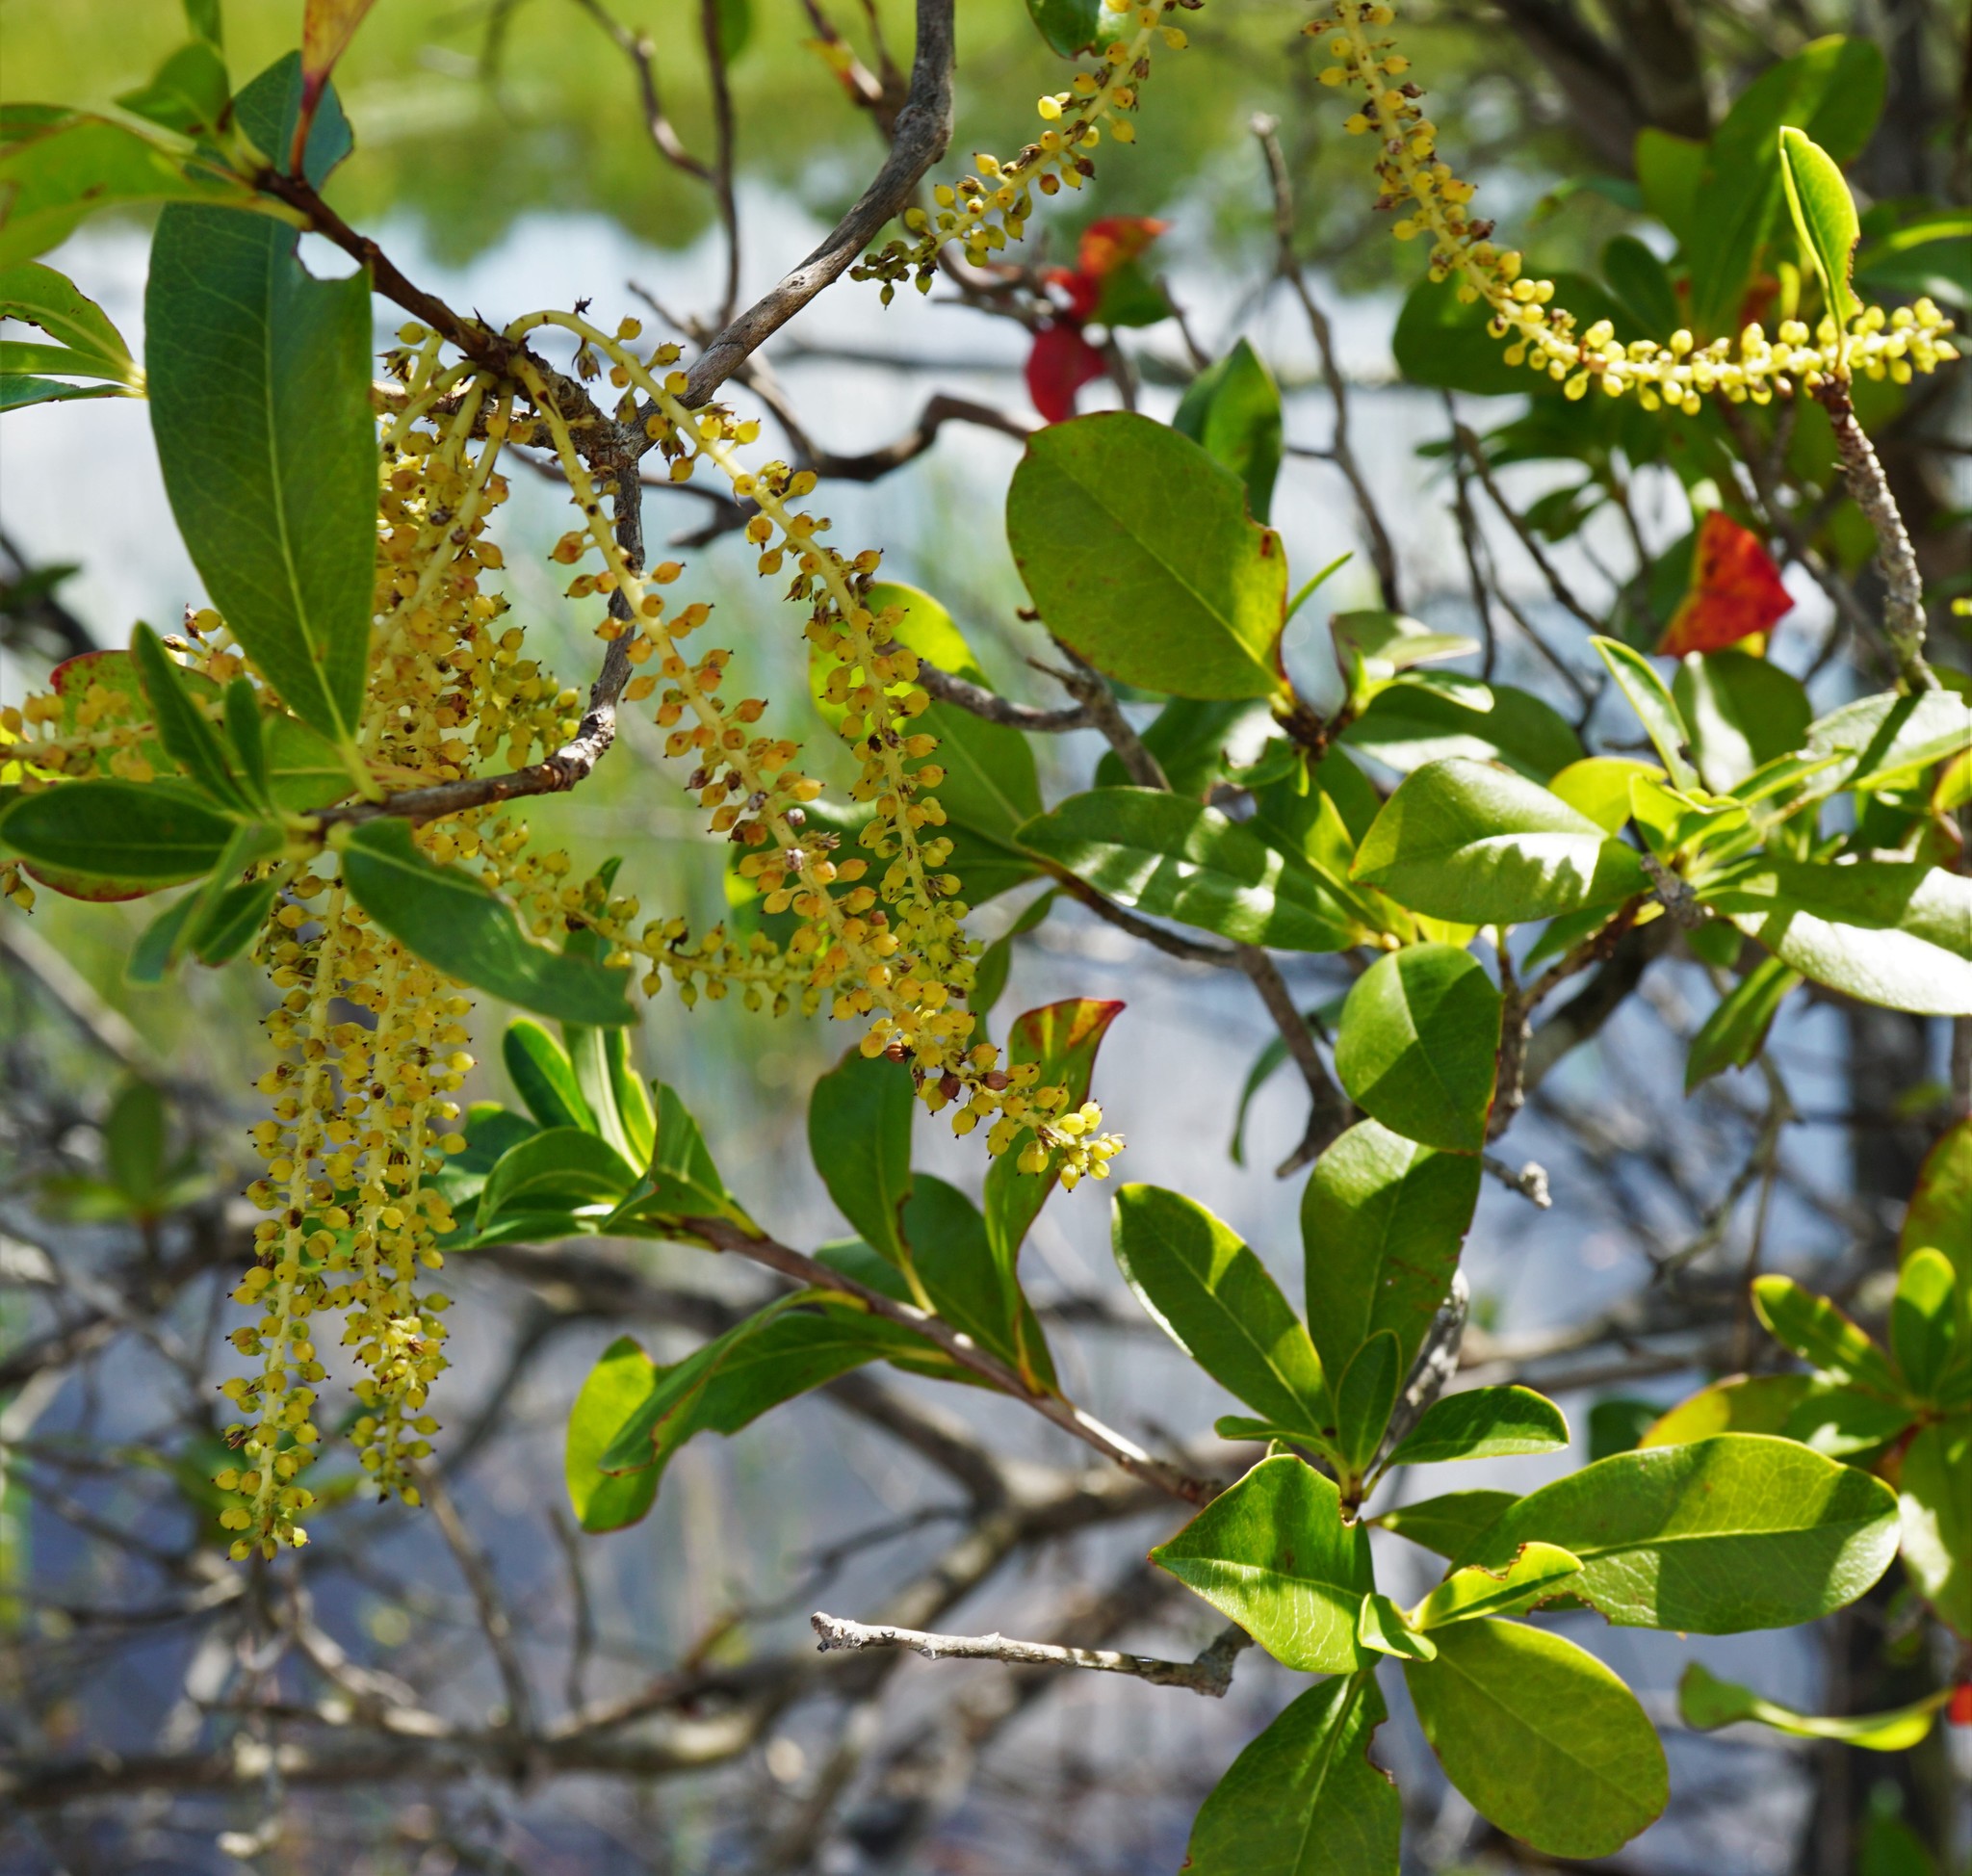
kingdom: Plantae
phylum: Tracheophyta
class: Magnoliopsida
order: Ericales
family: Cyrillaceae
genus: Cyrilla
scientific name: Cyrilla racemiflora
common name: Black titi
